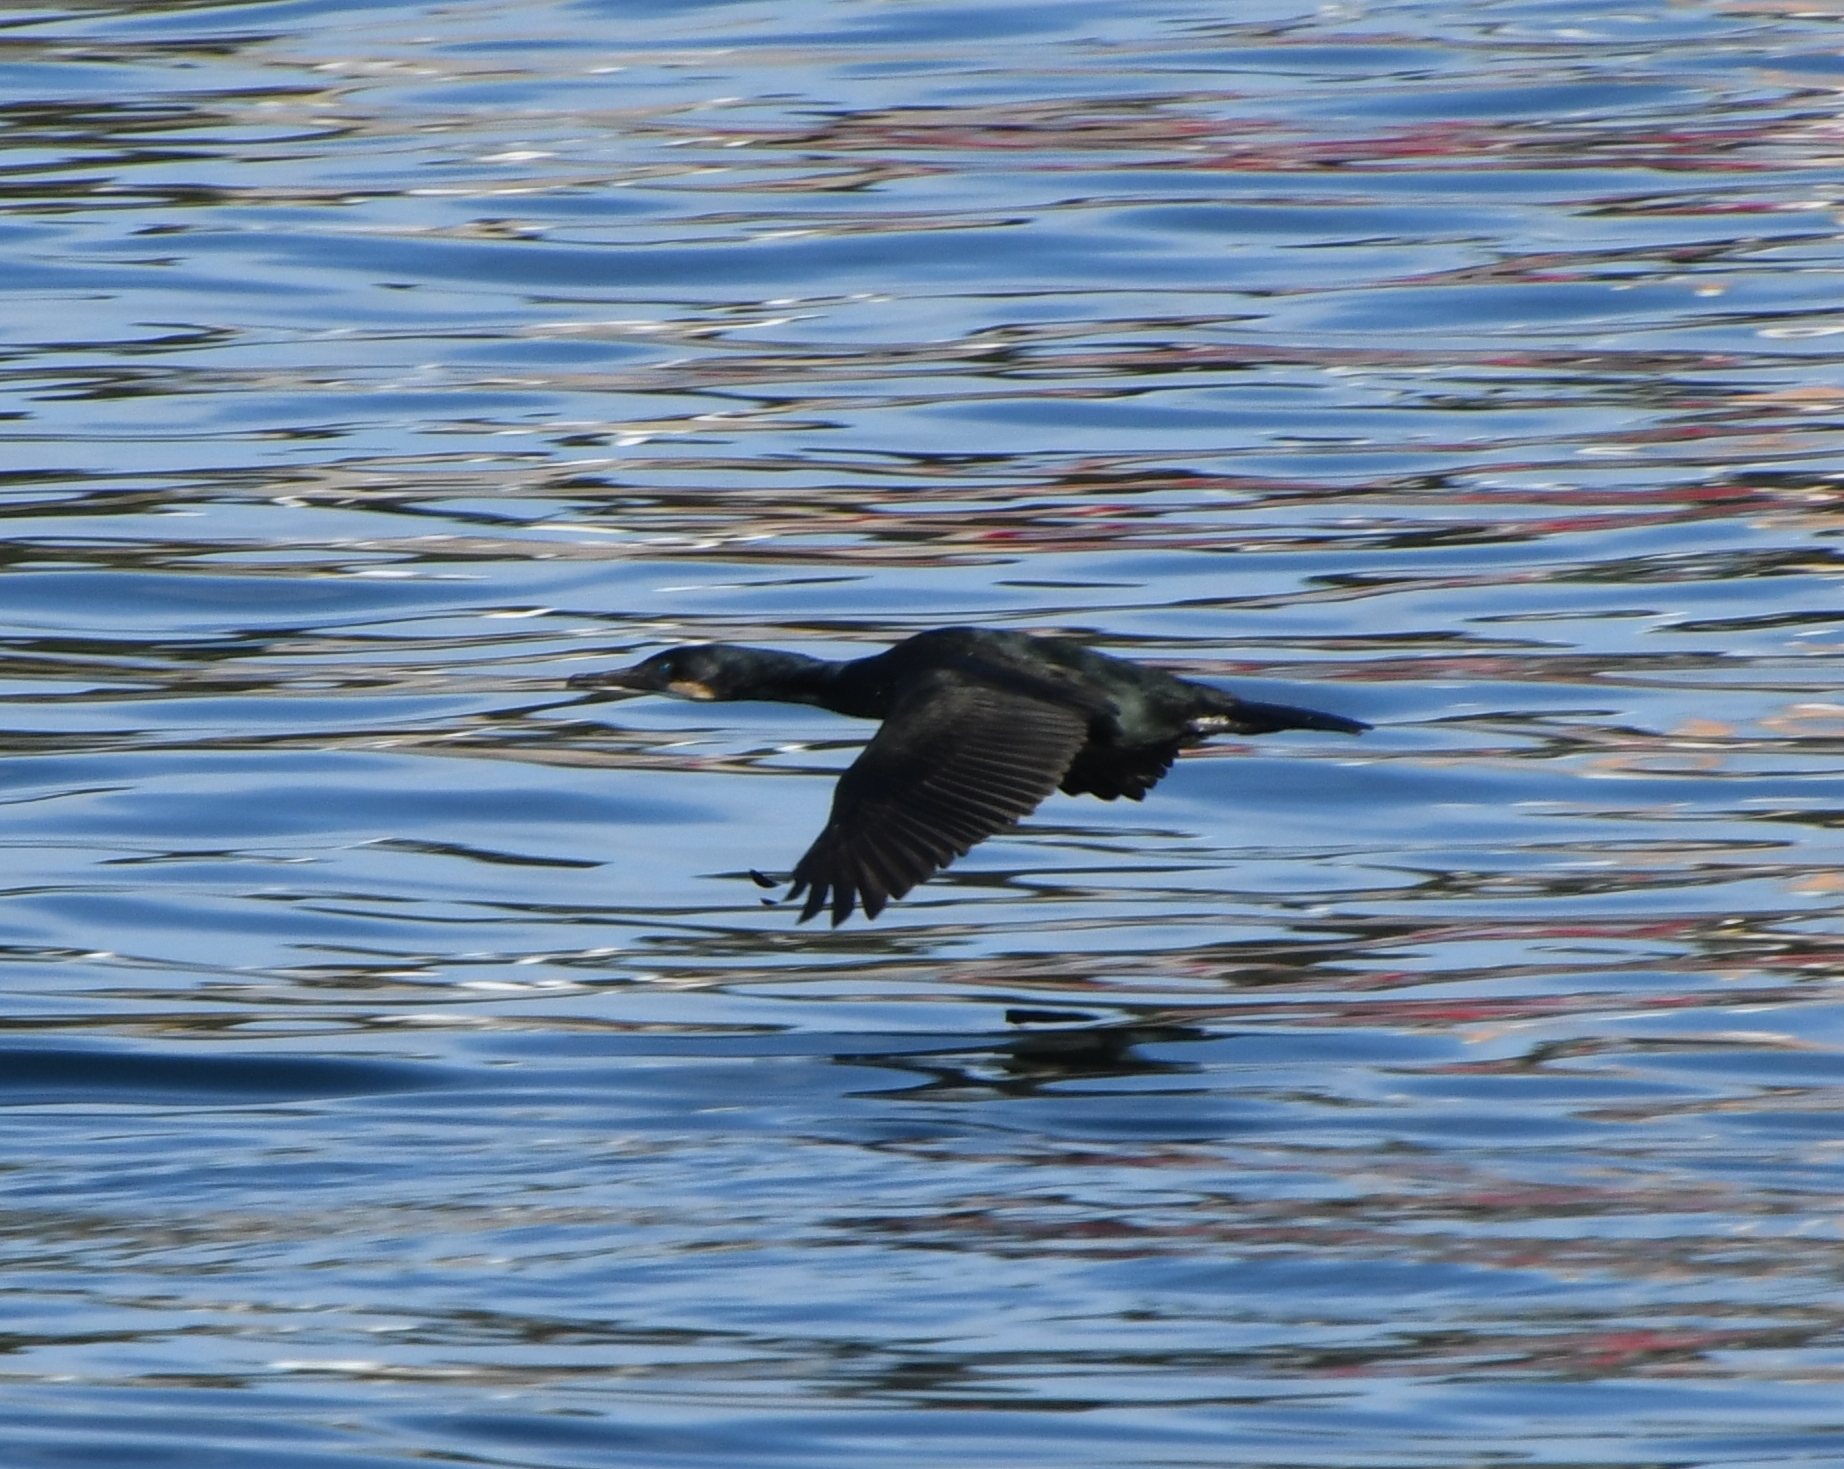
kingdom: Animalia
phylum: Chordata
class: Aves
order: Suliformes
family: Phalacrocoracidae
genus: Phalacrocorax
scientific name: Phalacrocorax pelagicus
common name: Pelagic cormorant
